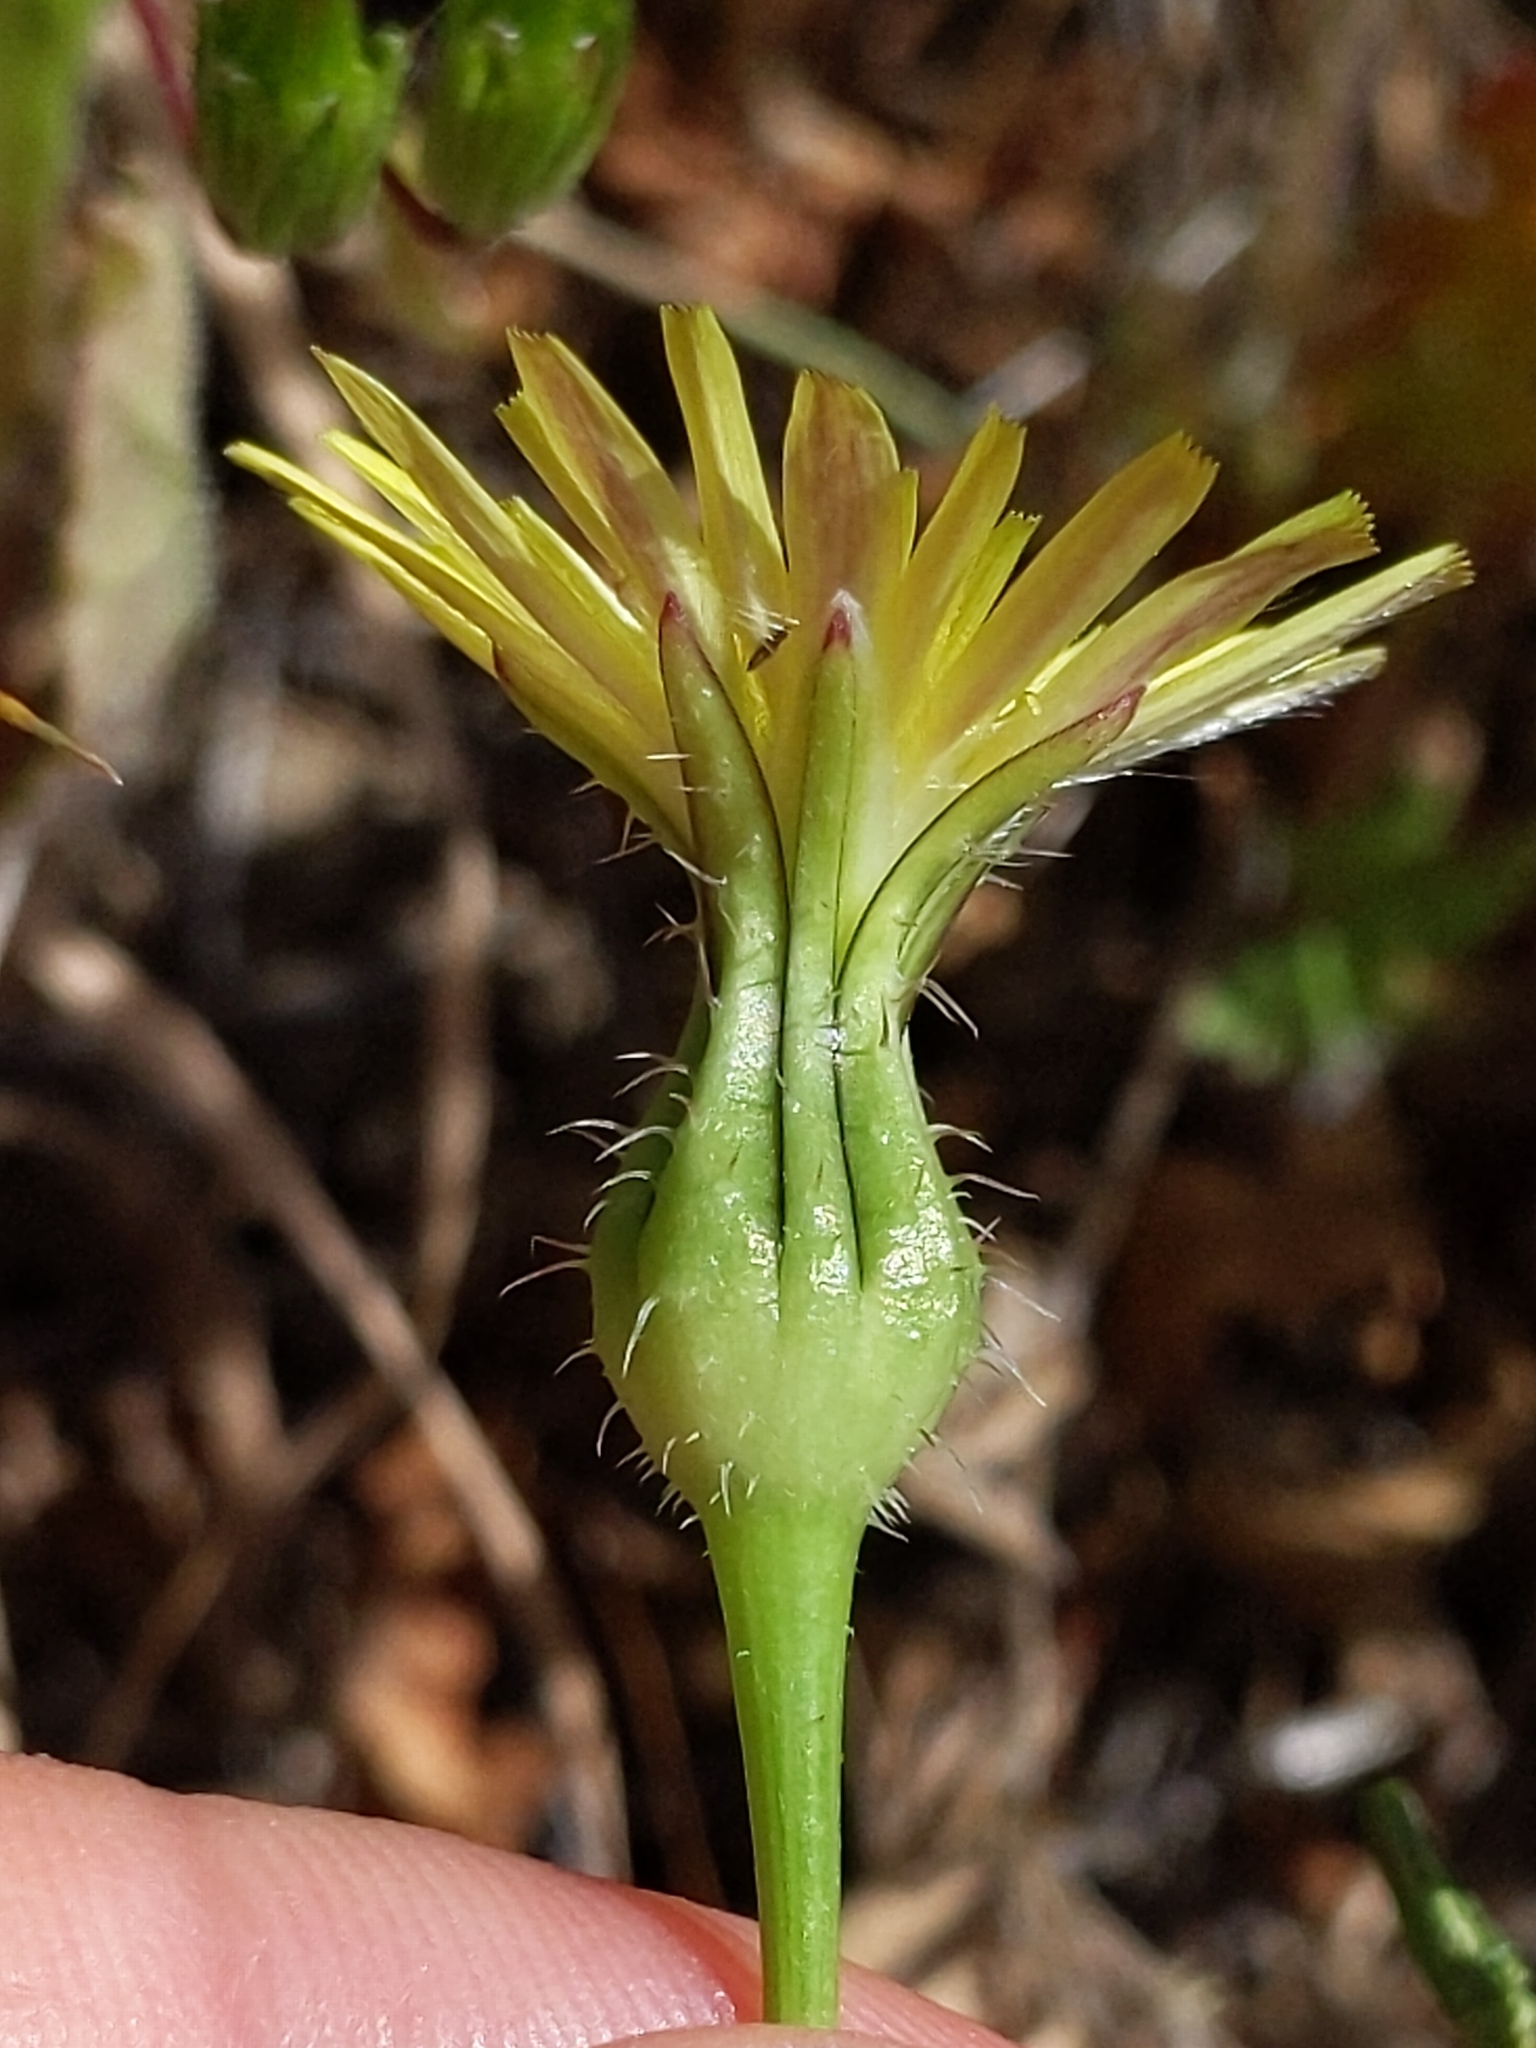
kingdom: Plantae
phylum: Tracheophyta
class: Magnoliopsida
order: Asterales
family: Asteraceae
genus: Urospermum
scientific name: Urospermum picroides
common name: False hawkbit
